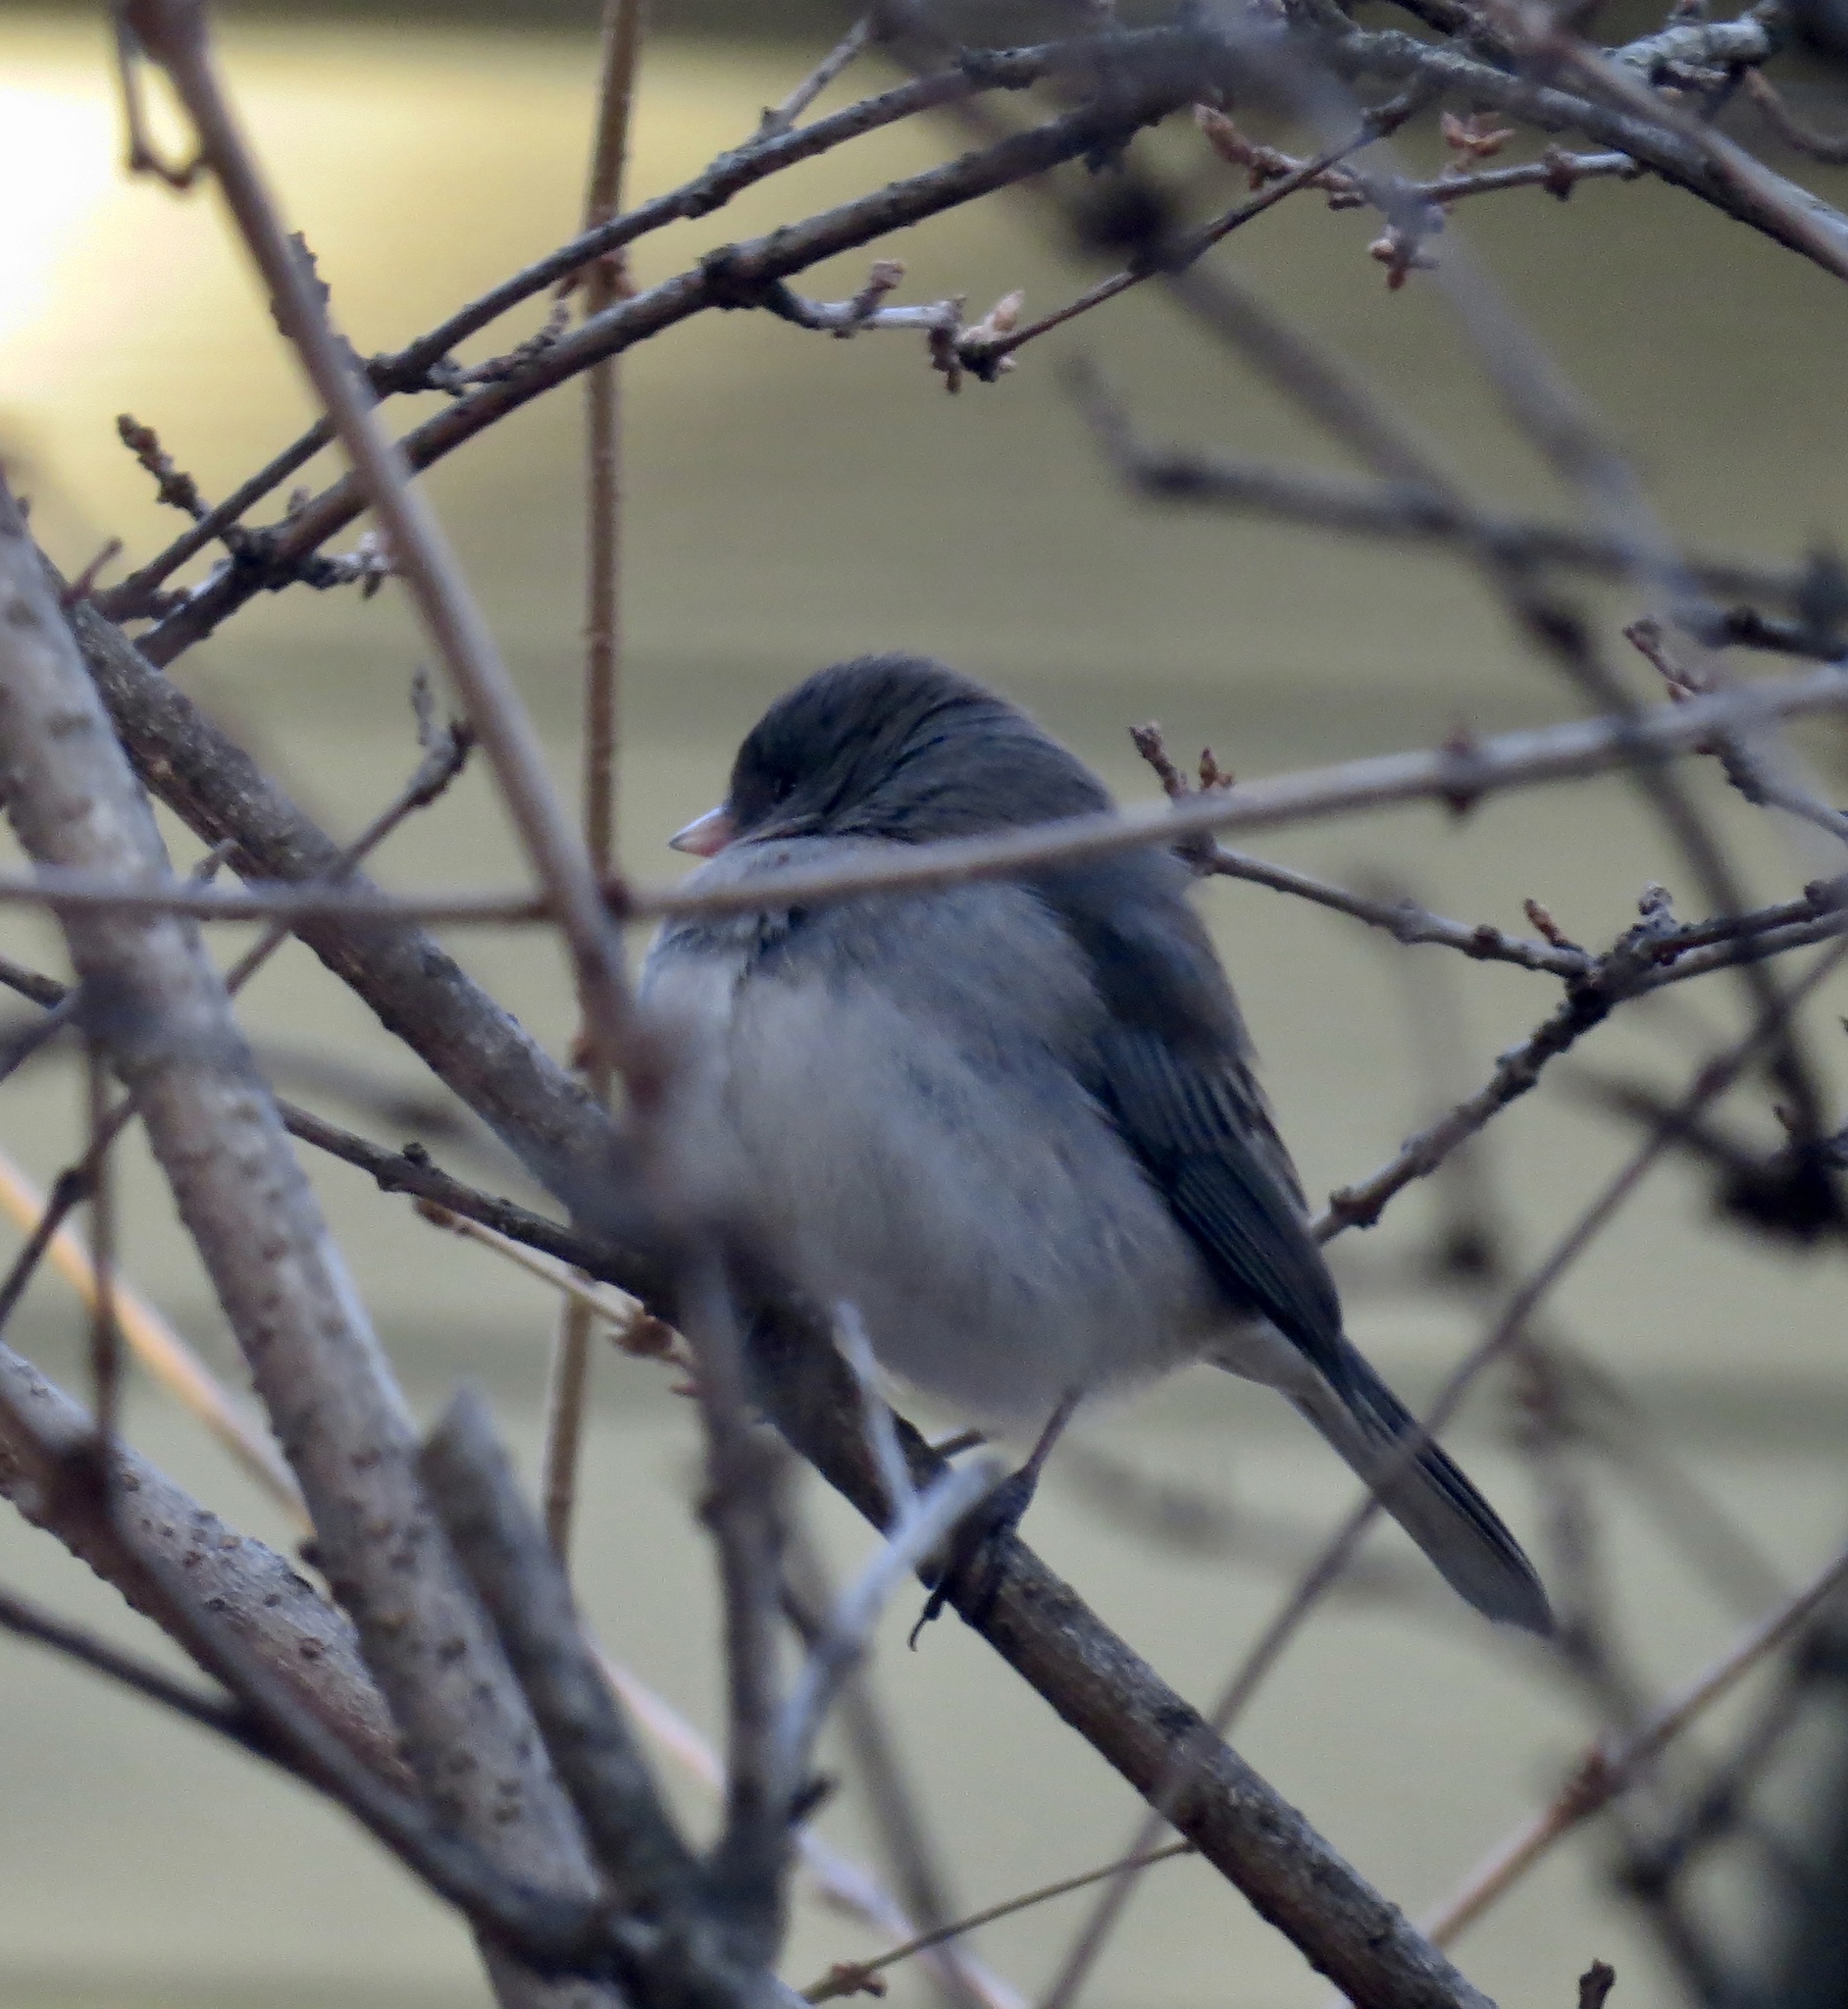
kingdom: Animalia
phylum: Chordata
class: Aves
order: Passeriformes
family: Passerellidae
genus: Junco
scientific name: Junco hyemalis
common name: Dark-eyed junco
